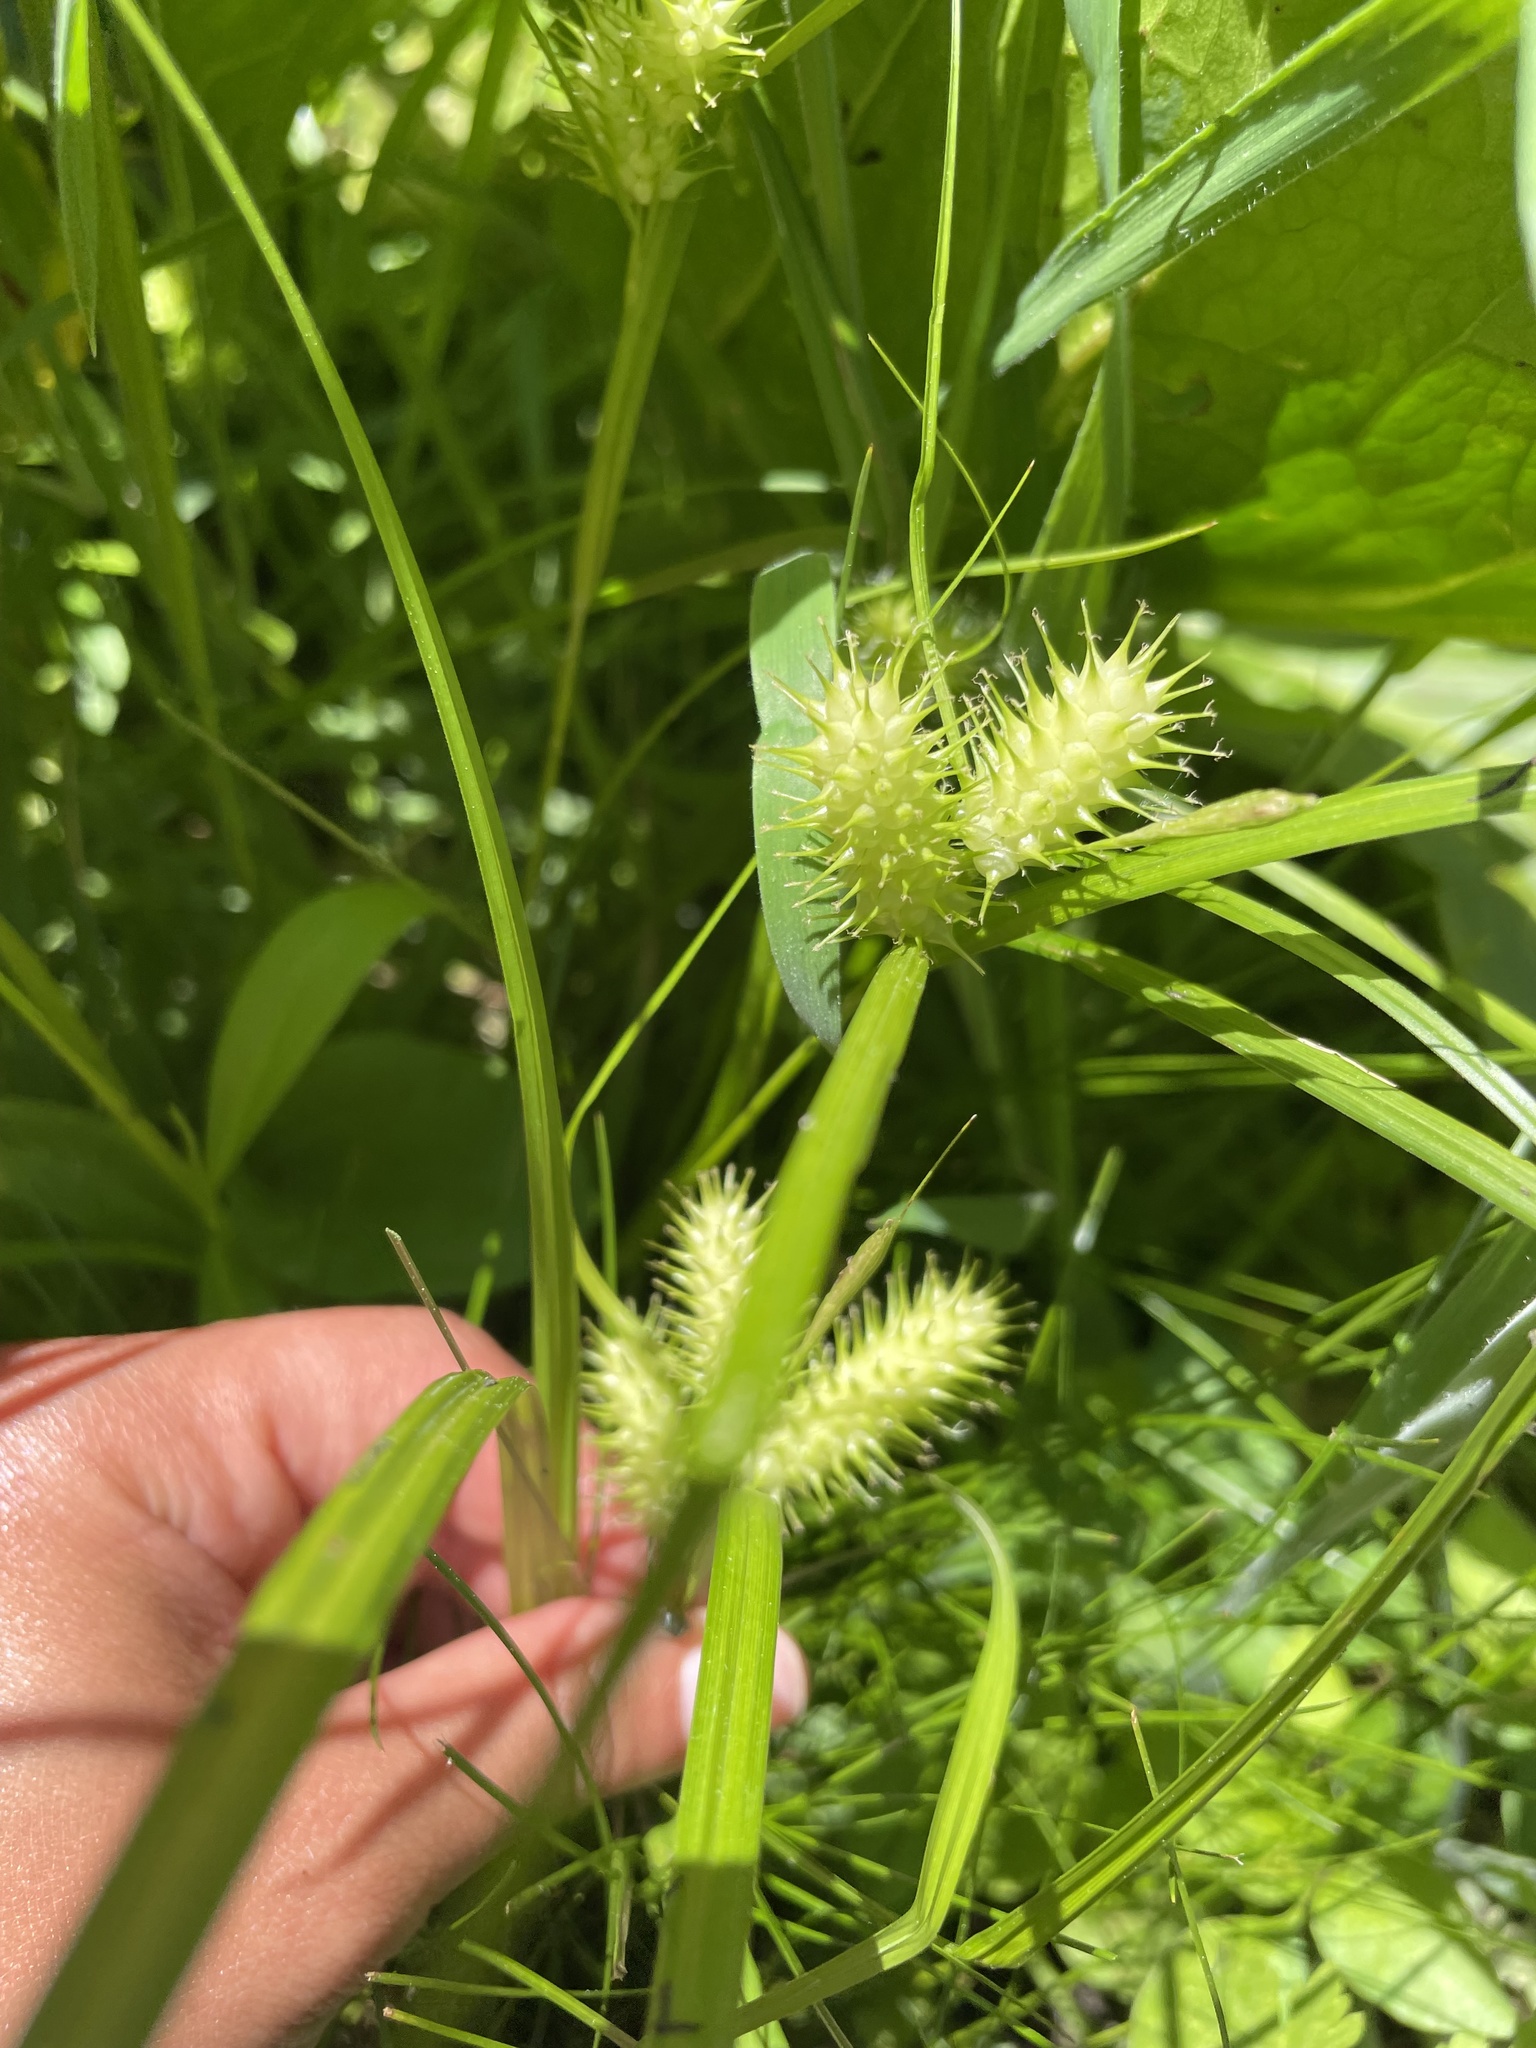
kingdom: Plantae
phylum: Tracheophyta
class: Liliopsida
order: Poales
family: Cyperaceae
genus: Carex
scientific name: Carex lurida
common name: Sallow sedge
